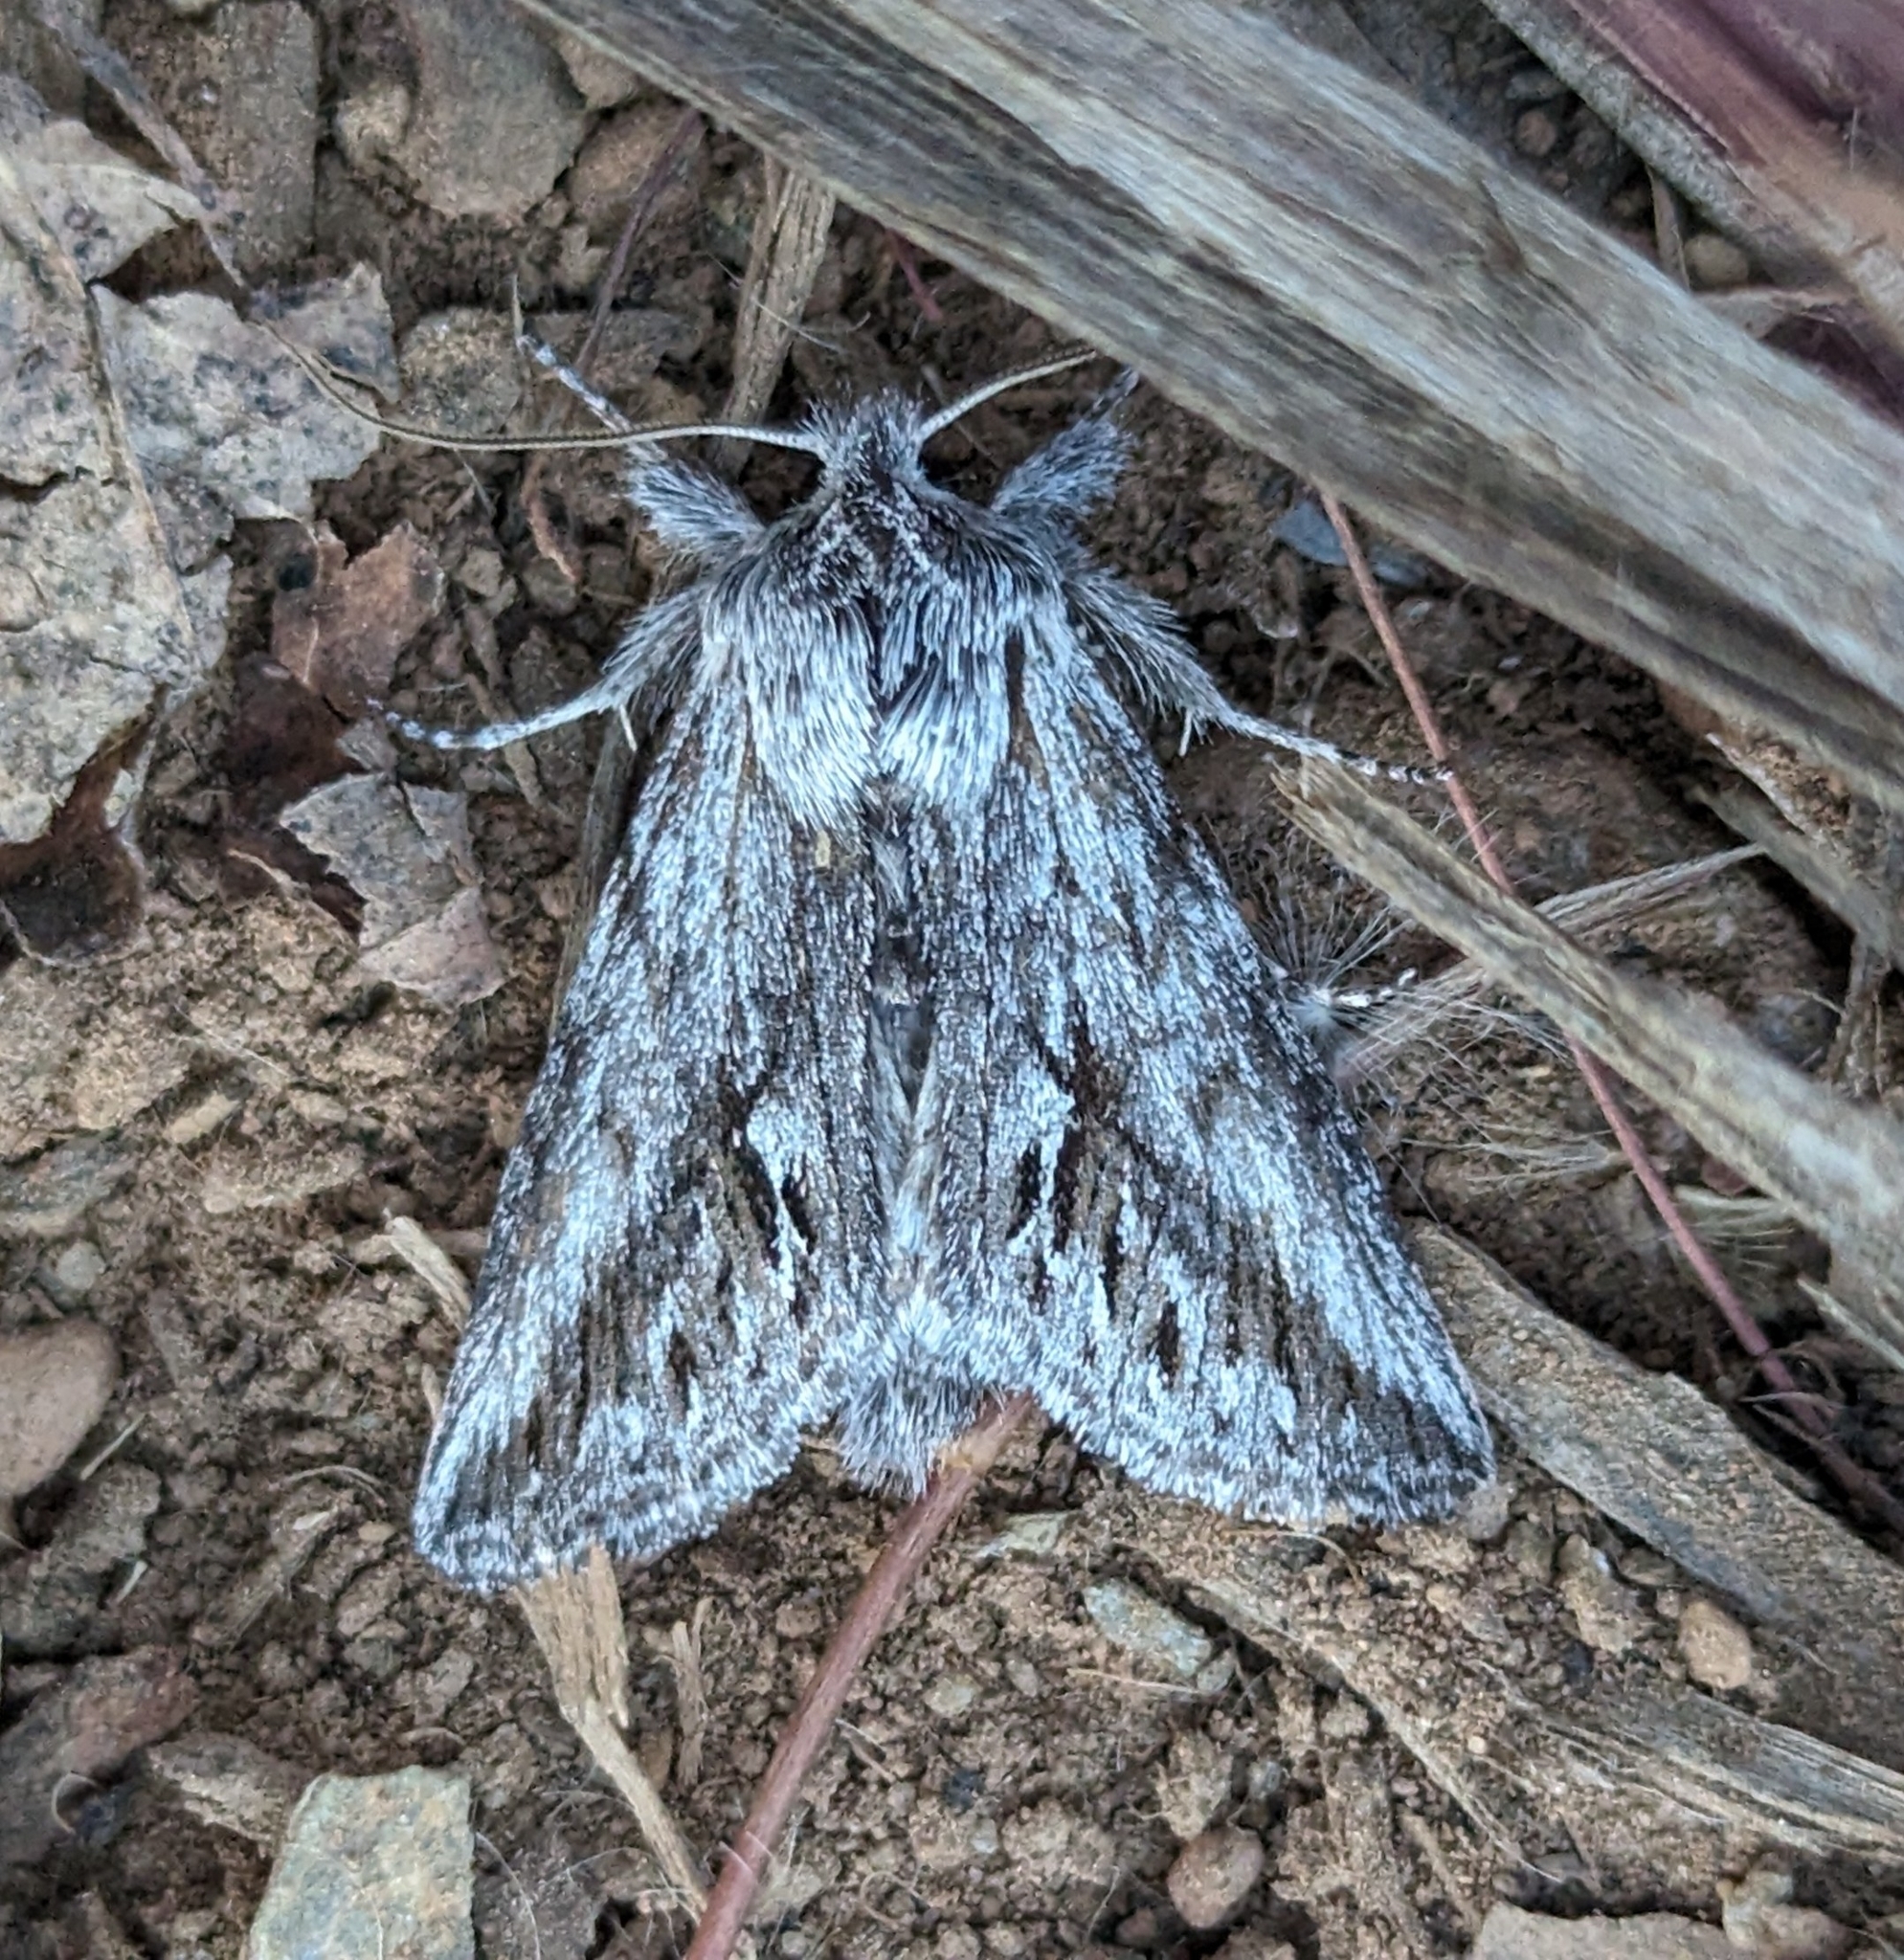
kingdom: Animalia
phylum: Arthropoda
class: Insecta
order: Lepidoptera
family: Noctuidae
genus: Pleromelloida
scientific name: Pleromelloida cinerea
